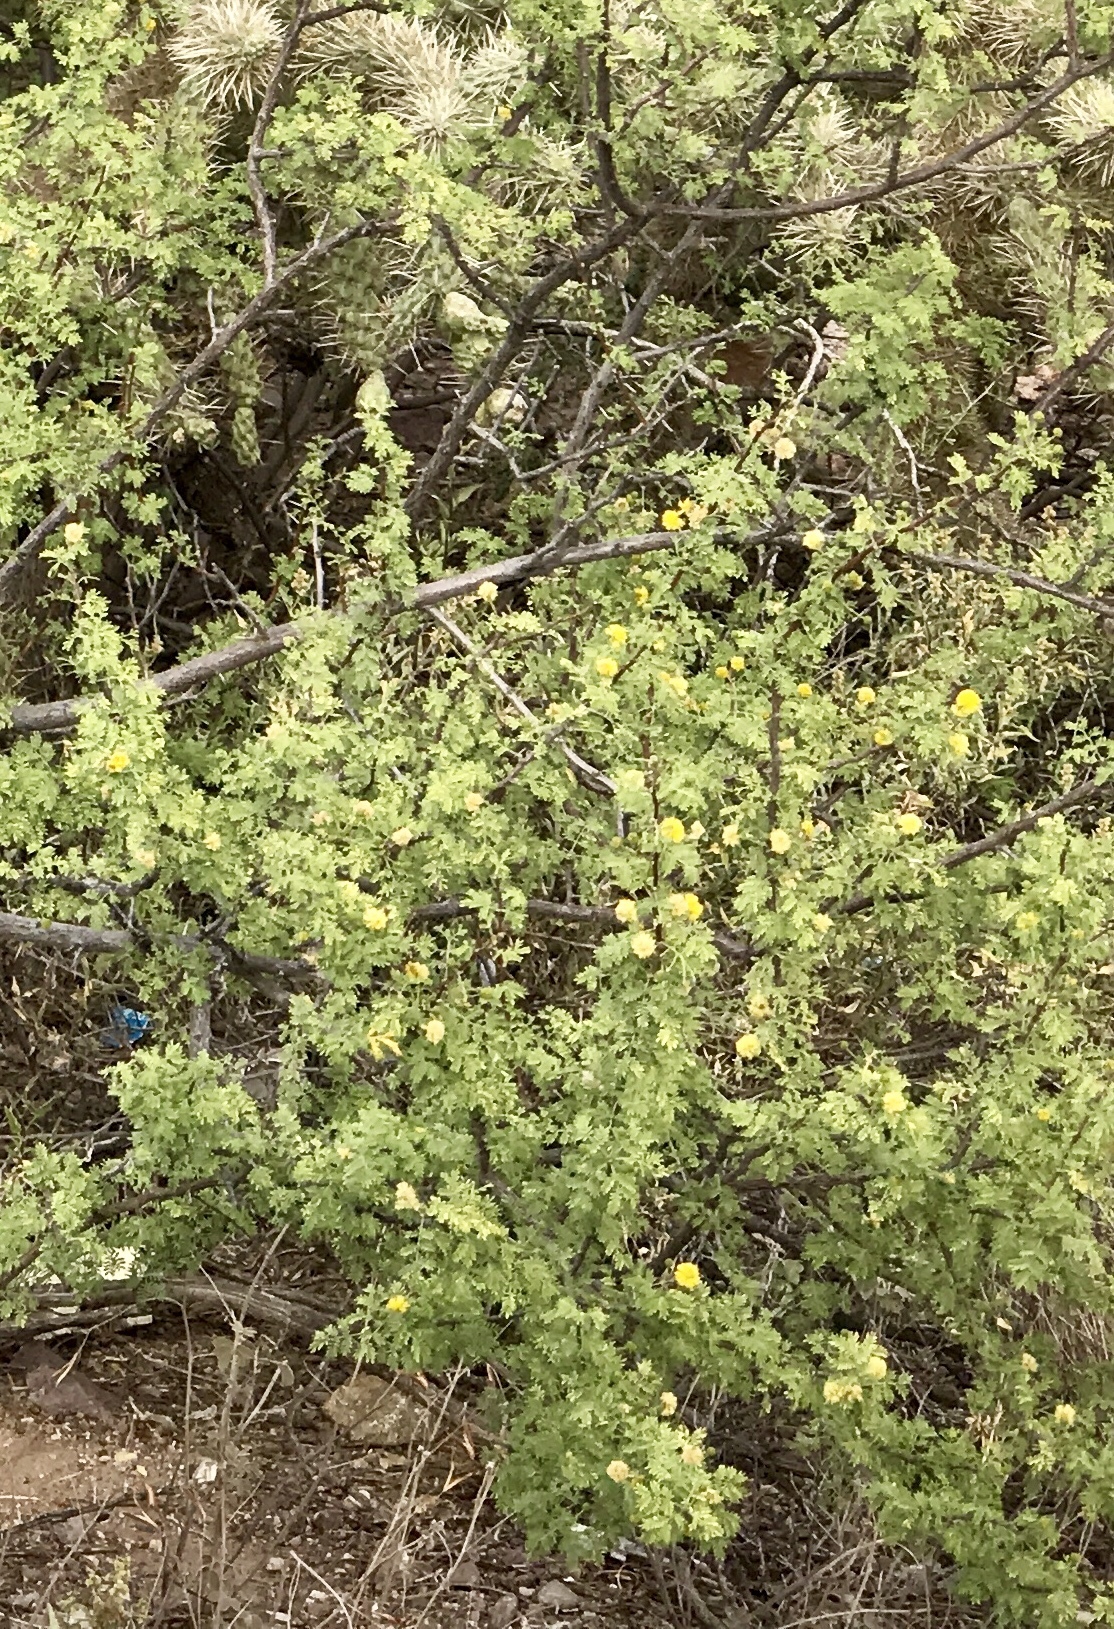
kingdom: Plantae
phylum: Tracheophyta
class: Magnoliopsida
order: Fabales
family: Fabaceae
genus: Vachellia
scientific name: Vachellia constricta
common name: Mescat acacia
